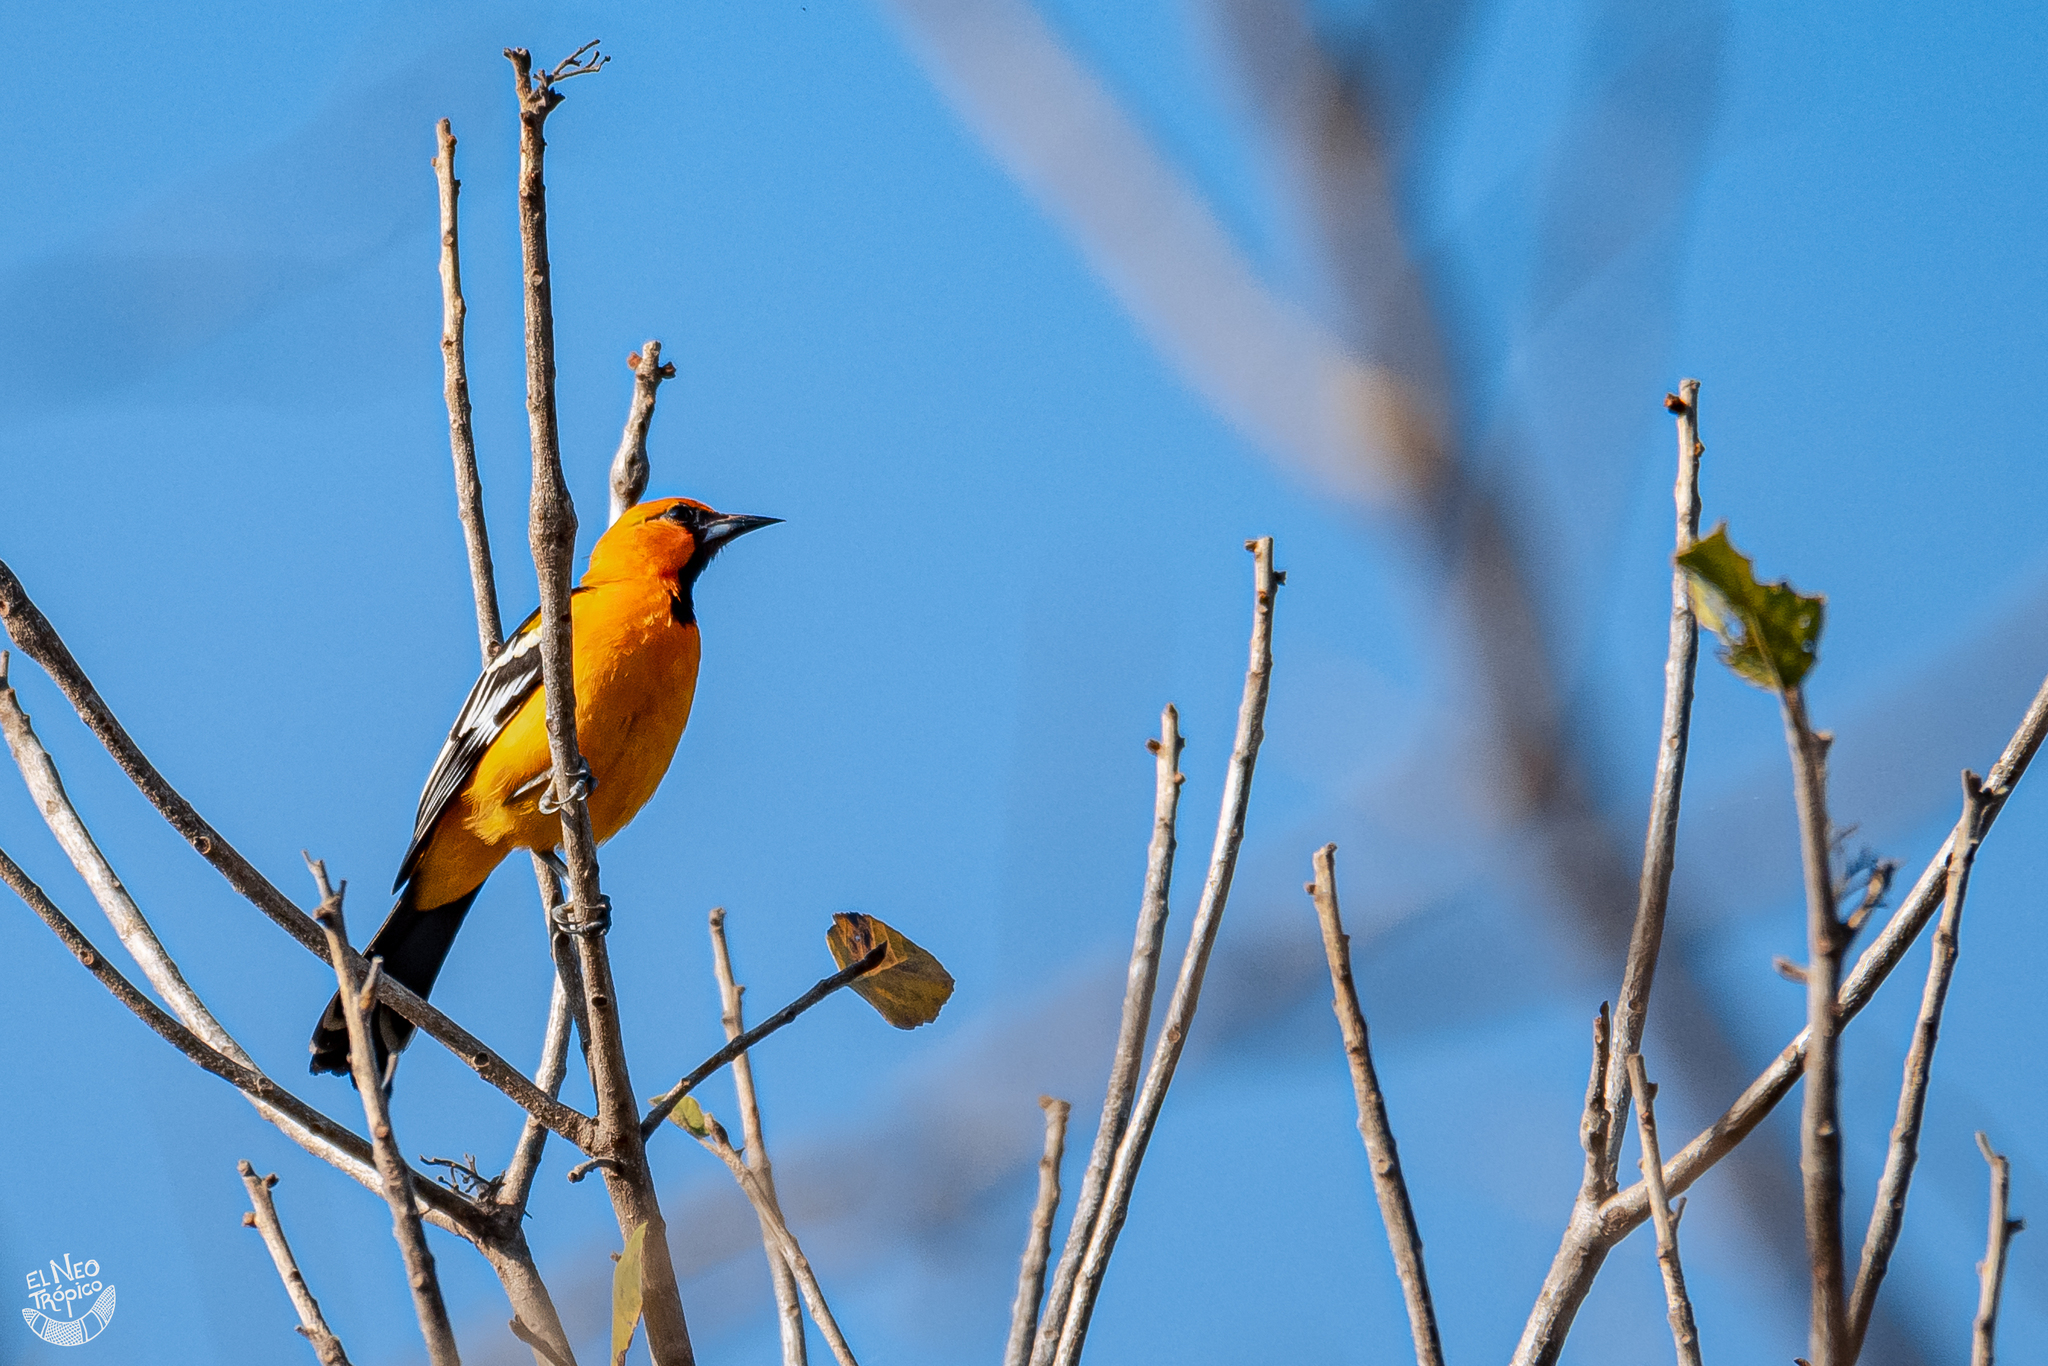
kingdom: Animalia
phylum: Chordata
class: Aves
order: Passeriformes
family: Icteridae
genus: Icterus
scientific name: Icterus gularis
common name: Altamira oriole
